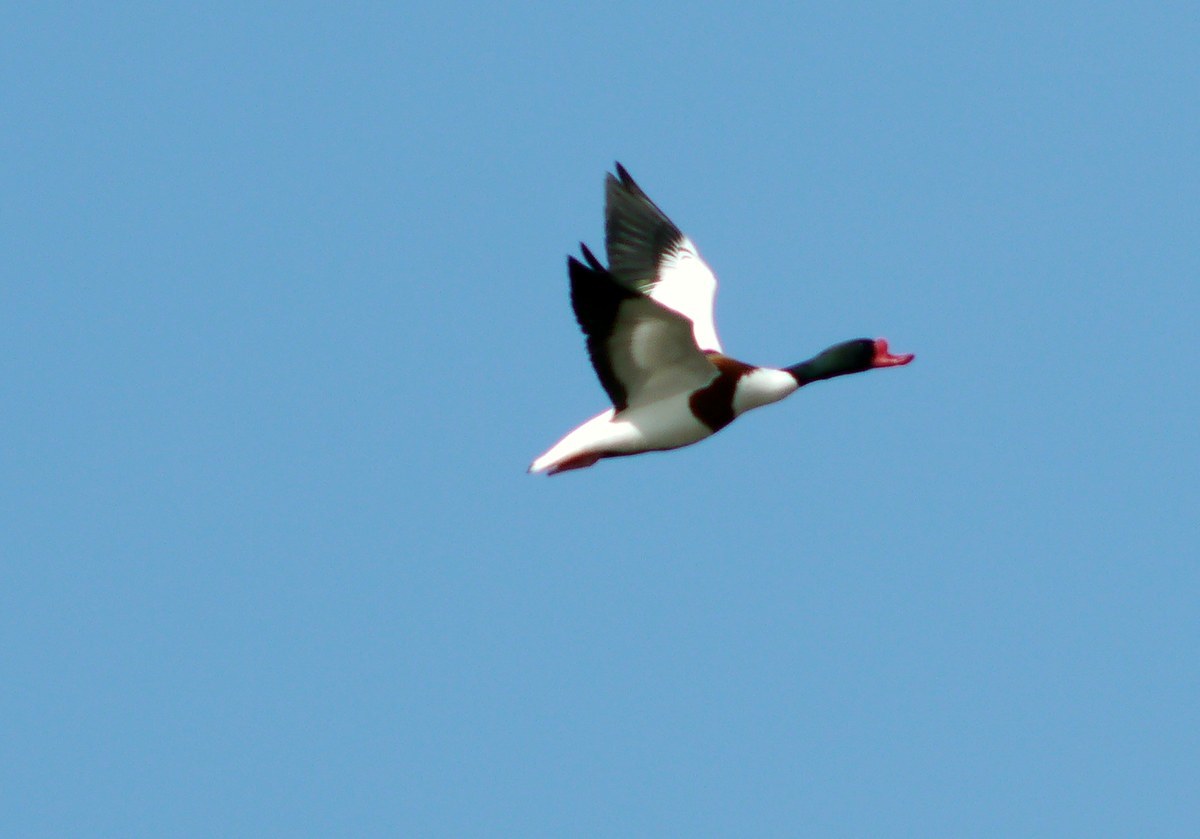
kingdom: Animalia
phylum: Chordata
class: Aves
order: Anseriformes
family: Anatidae
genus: Tadorna
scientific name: Tadorna tadorna
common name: Common shelduck
